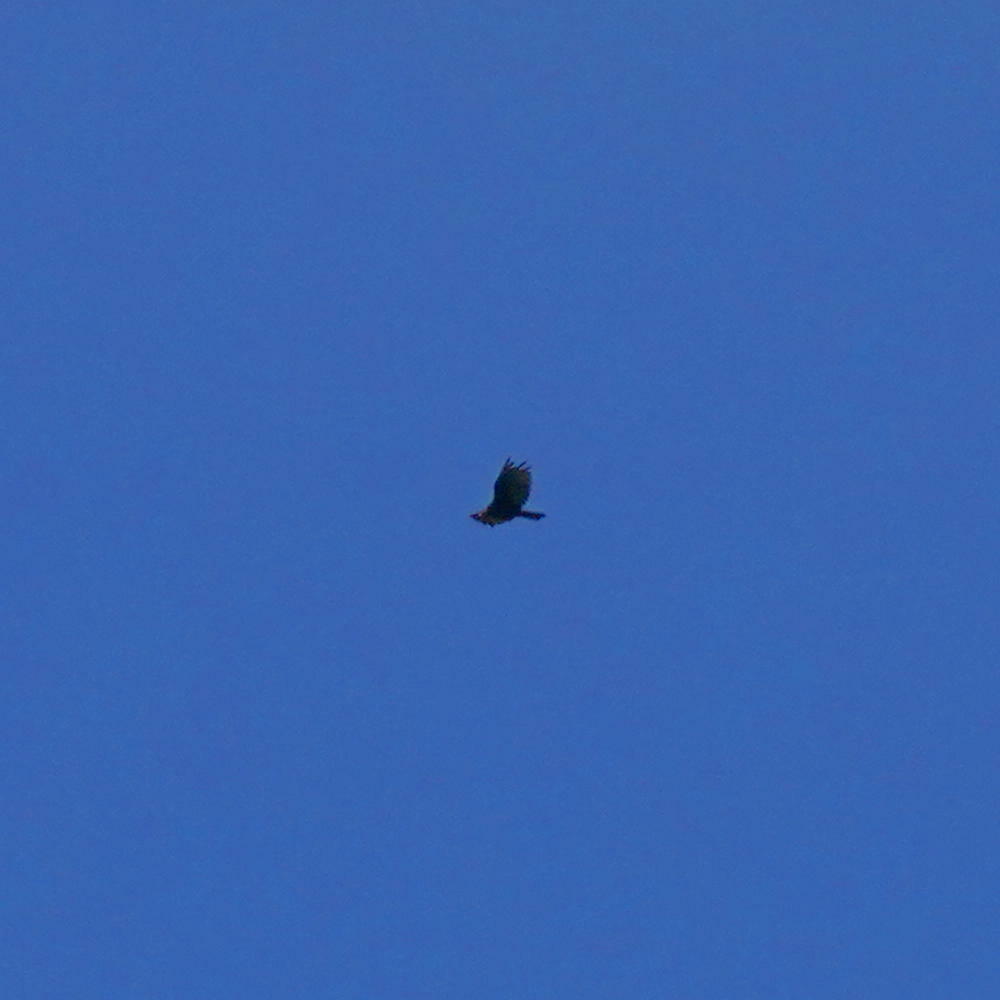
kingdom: Animalia
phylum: Chordata
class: Aves
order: Accipitriformes
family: Cathartidae
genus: Cathartes
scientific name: Cathartes aura
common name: Turkey vulture
